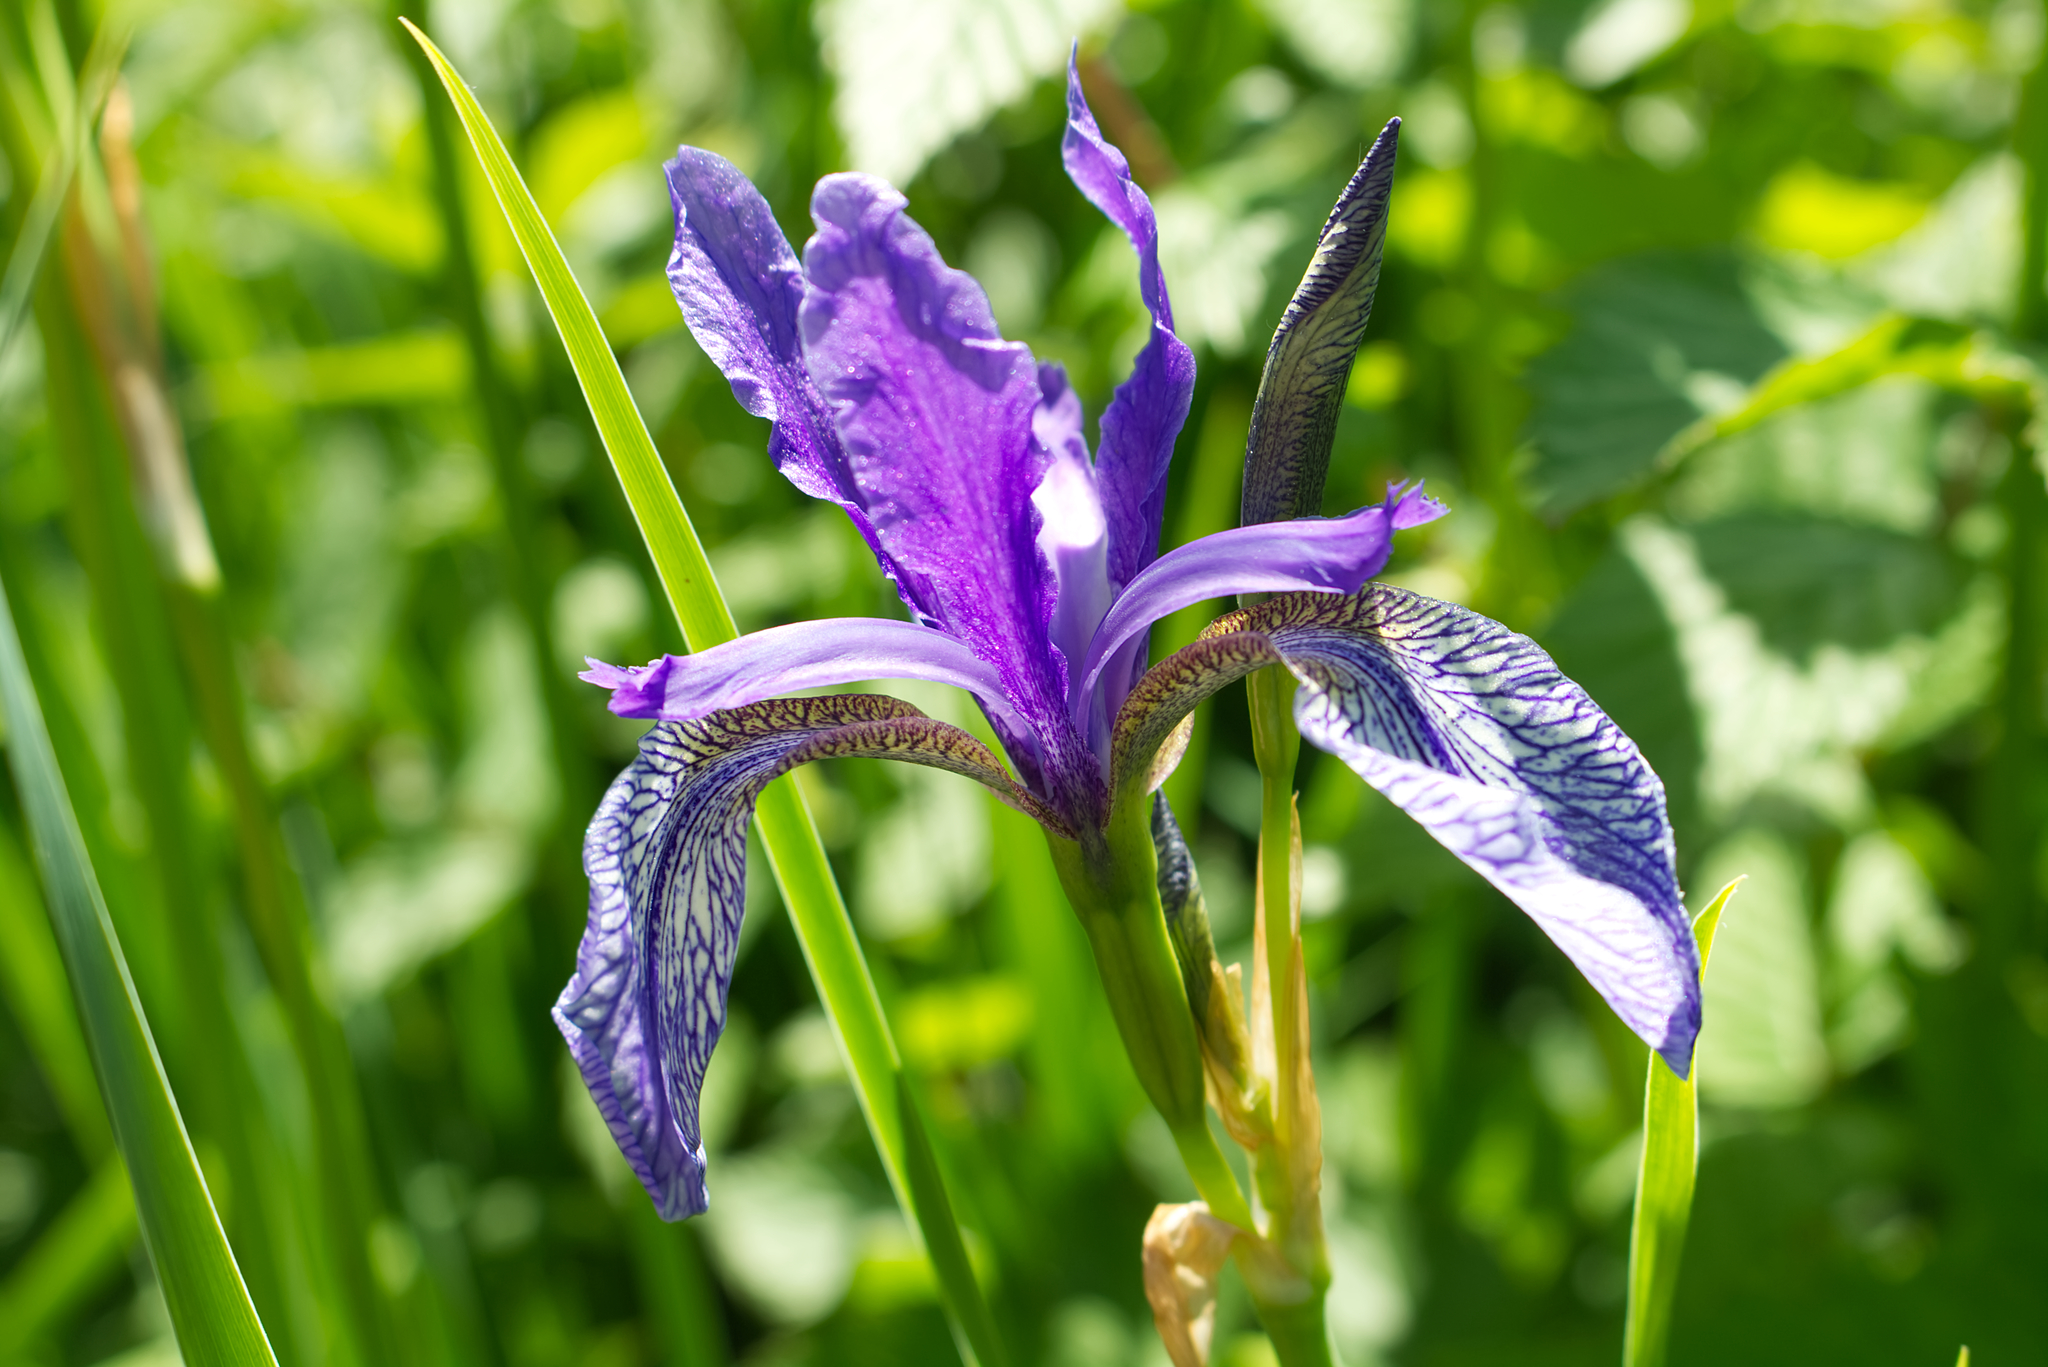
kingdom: Plantae
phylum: Tracheophyta
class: Liliopsida
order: Asparagales
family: Iridaceae
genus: Iris
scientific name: Iris sibirica
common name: Siberian iris
